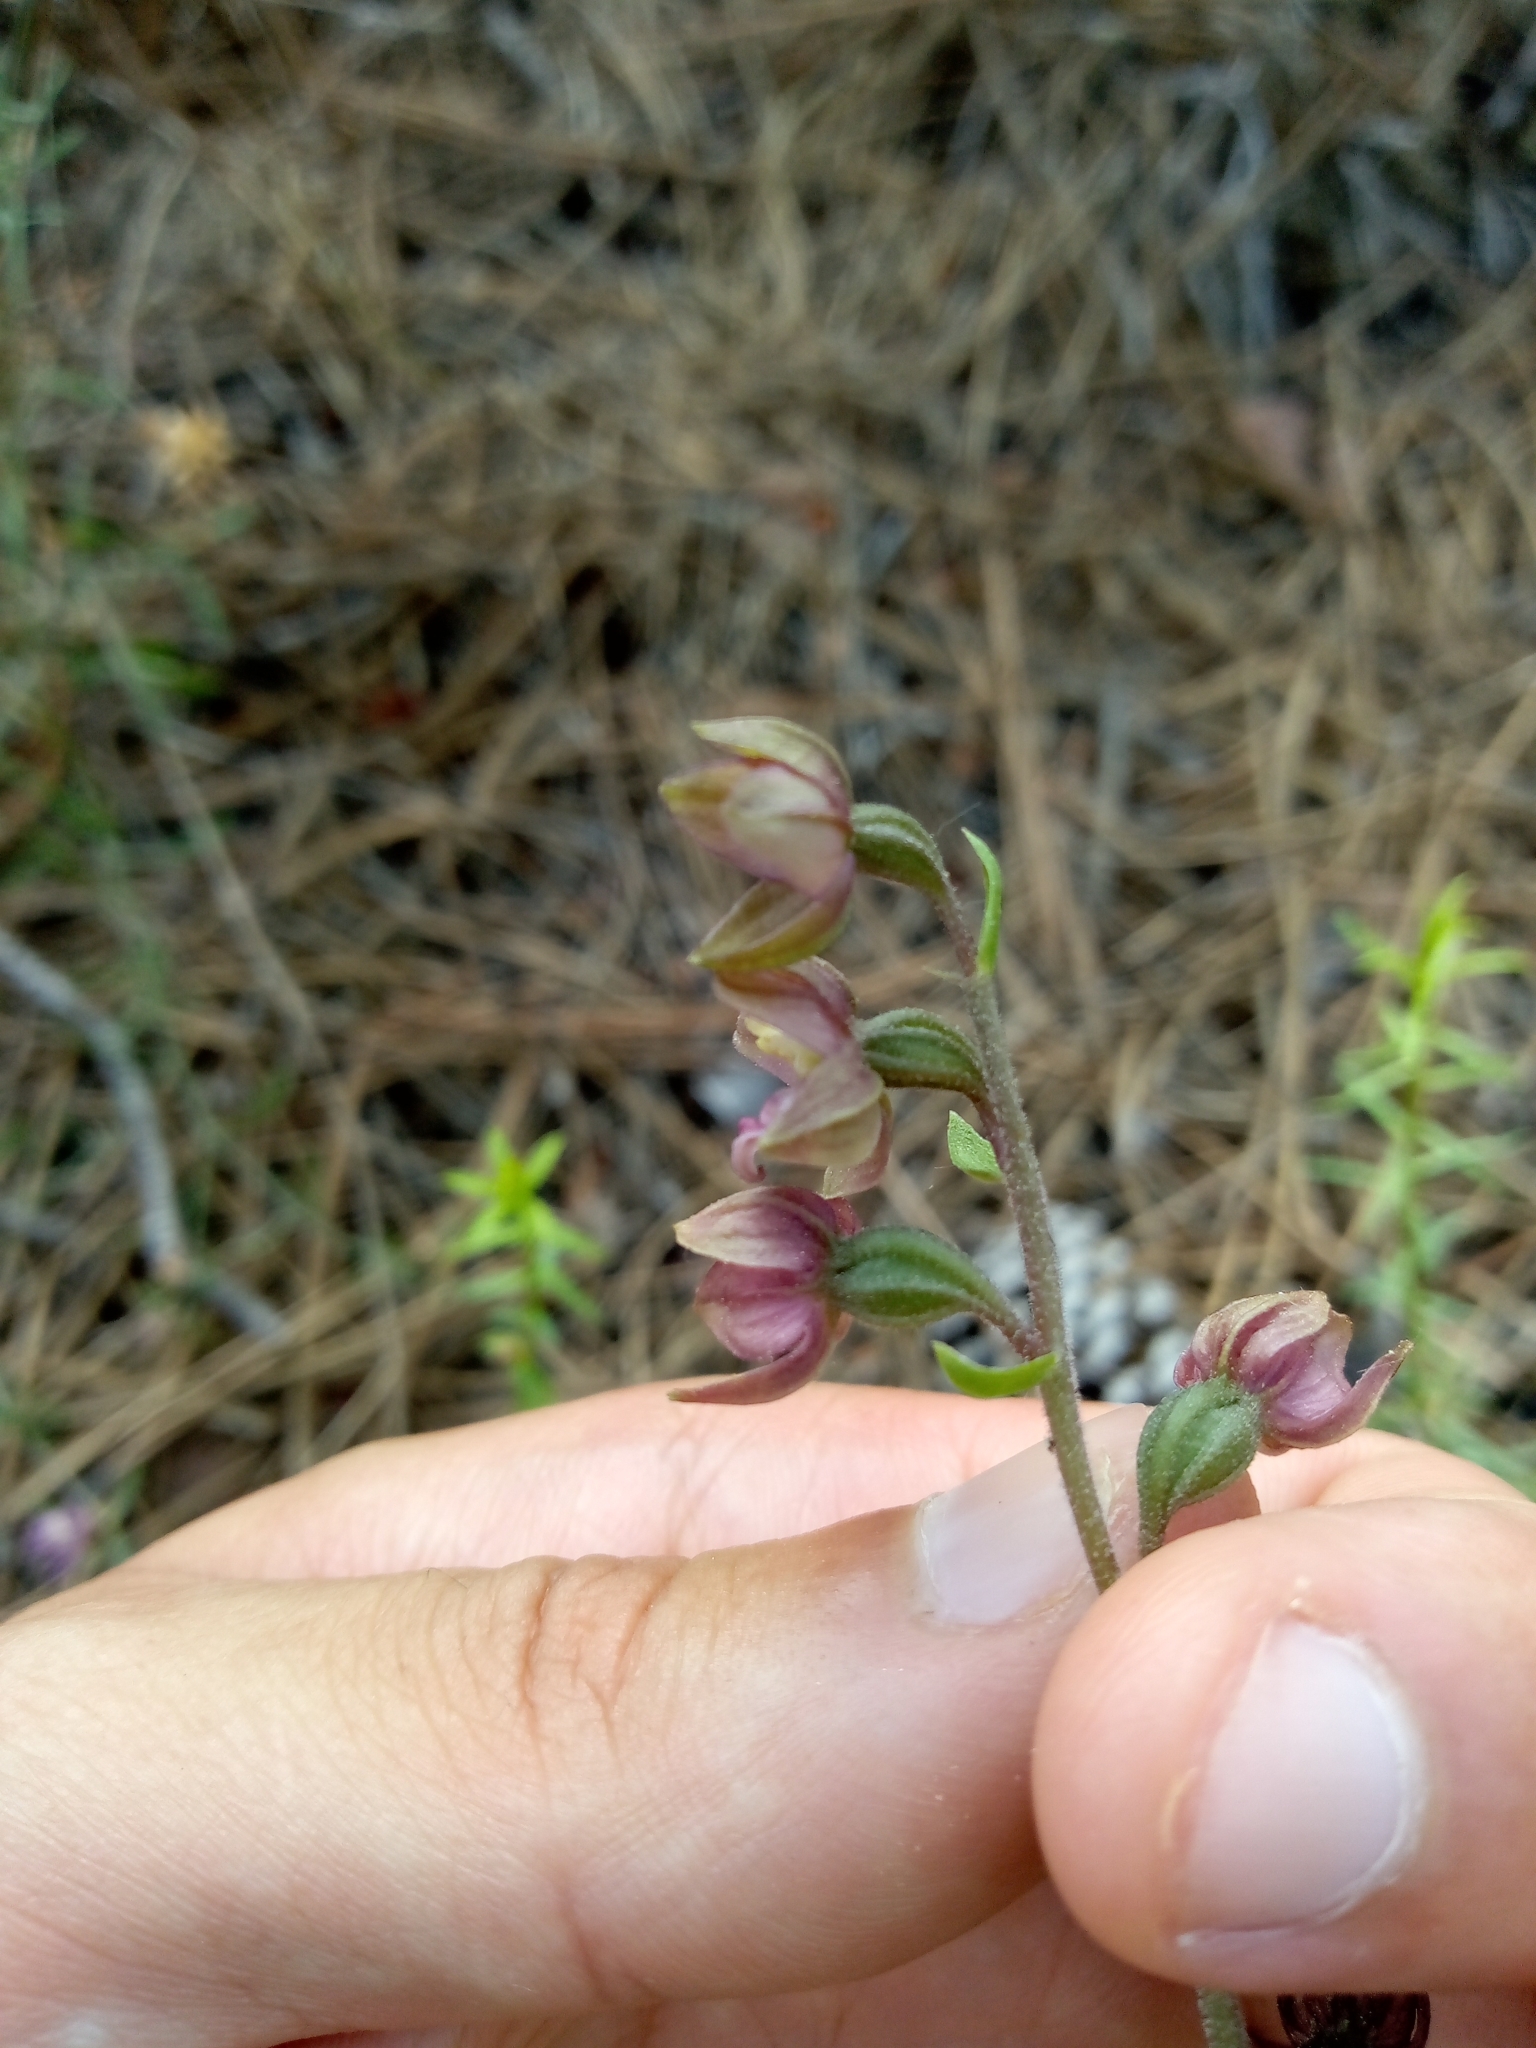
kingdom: Plantae
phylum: Tracheophyta
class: Liliopsida
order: Asparagales
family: Orchidaceae
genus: Epipactis
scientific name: Epipactis helleborine
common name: Broad-leaved helleborine
